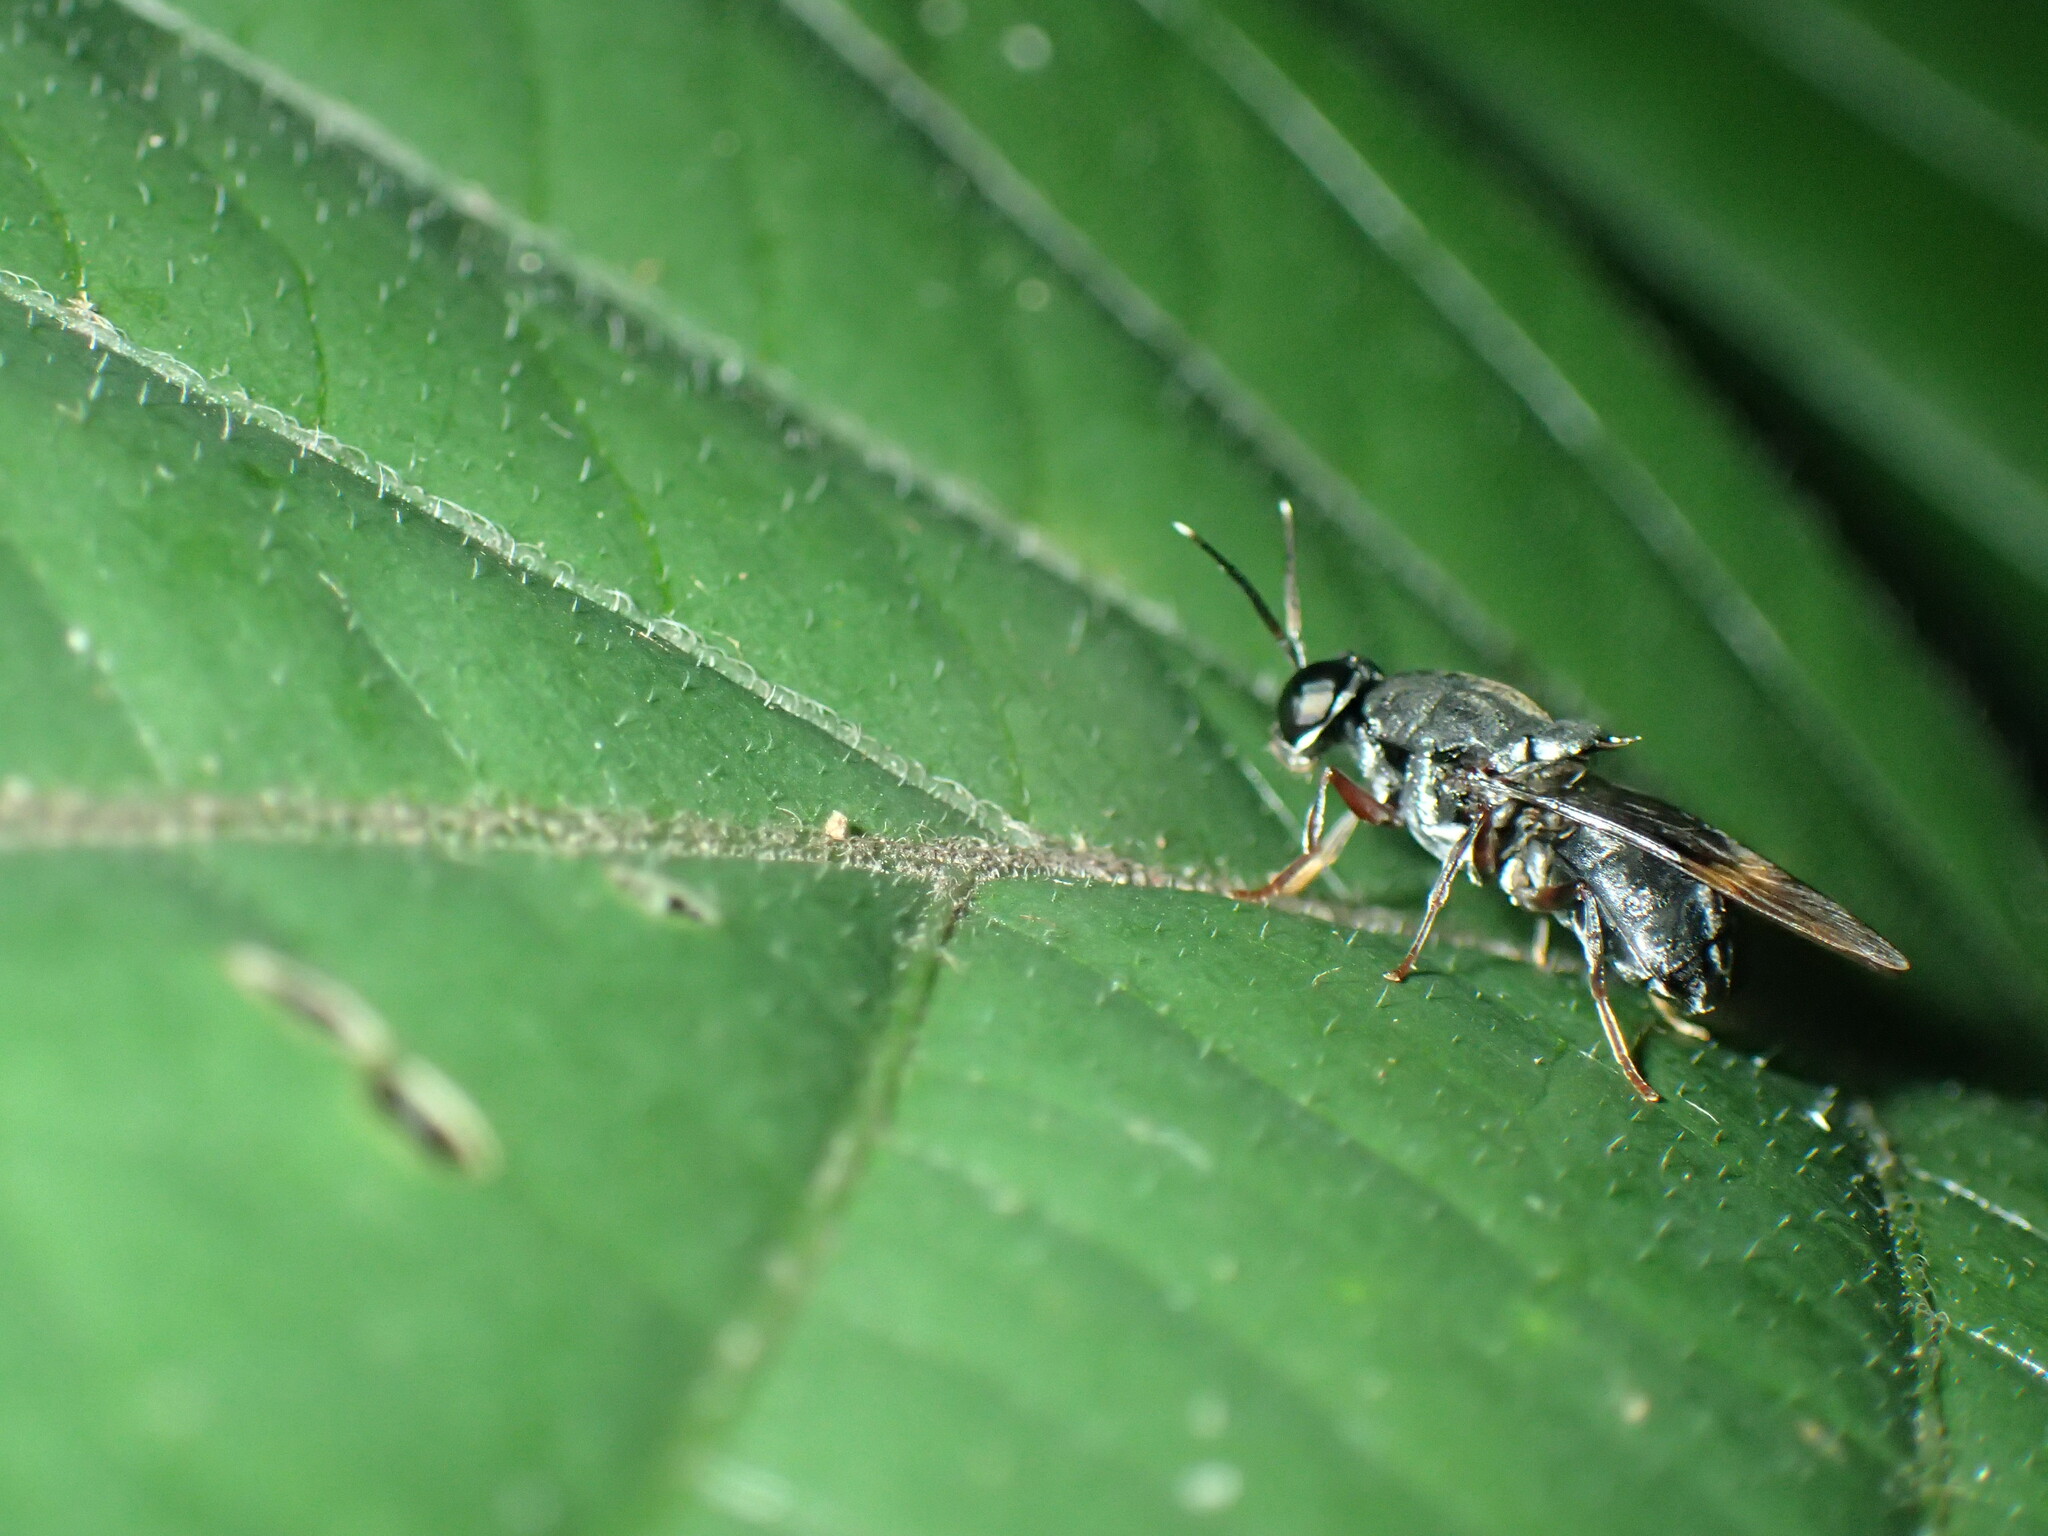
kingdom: Animalia
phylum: Arthropoda
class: Insecta
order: Diptera
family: Stratiomyidae
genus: Isomerocera
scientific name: Isomerocera quadrilineata
